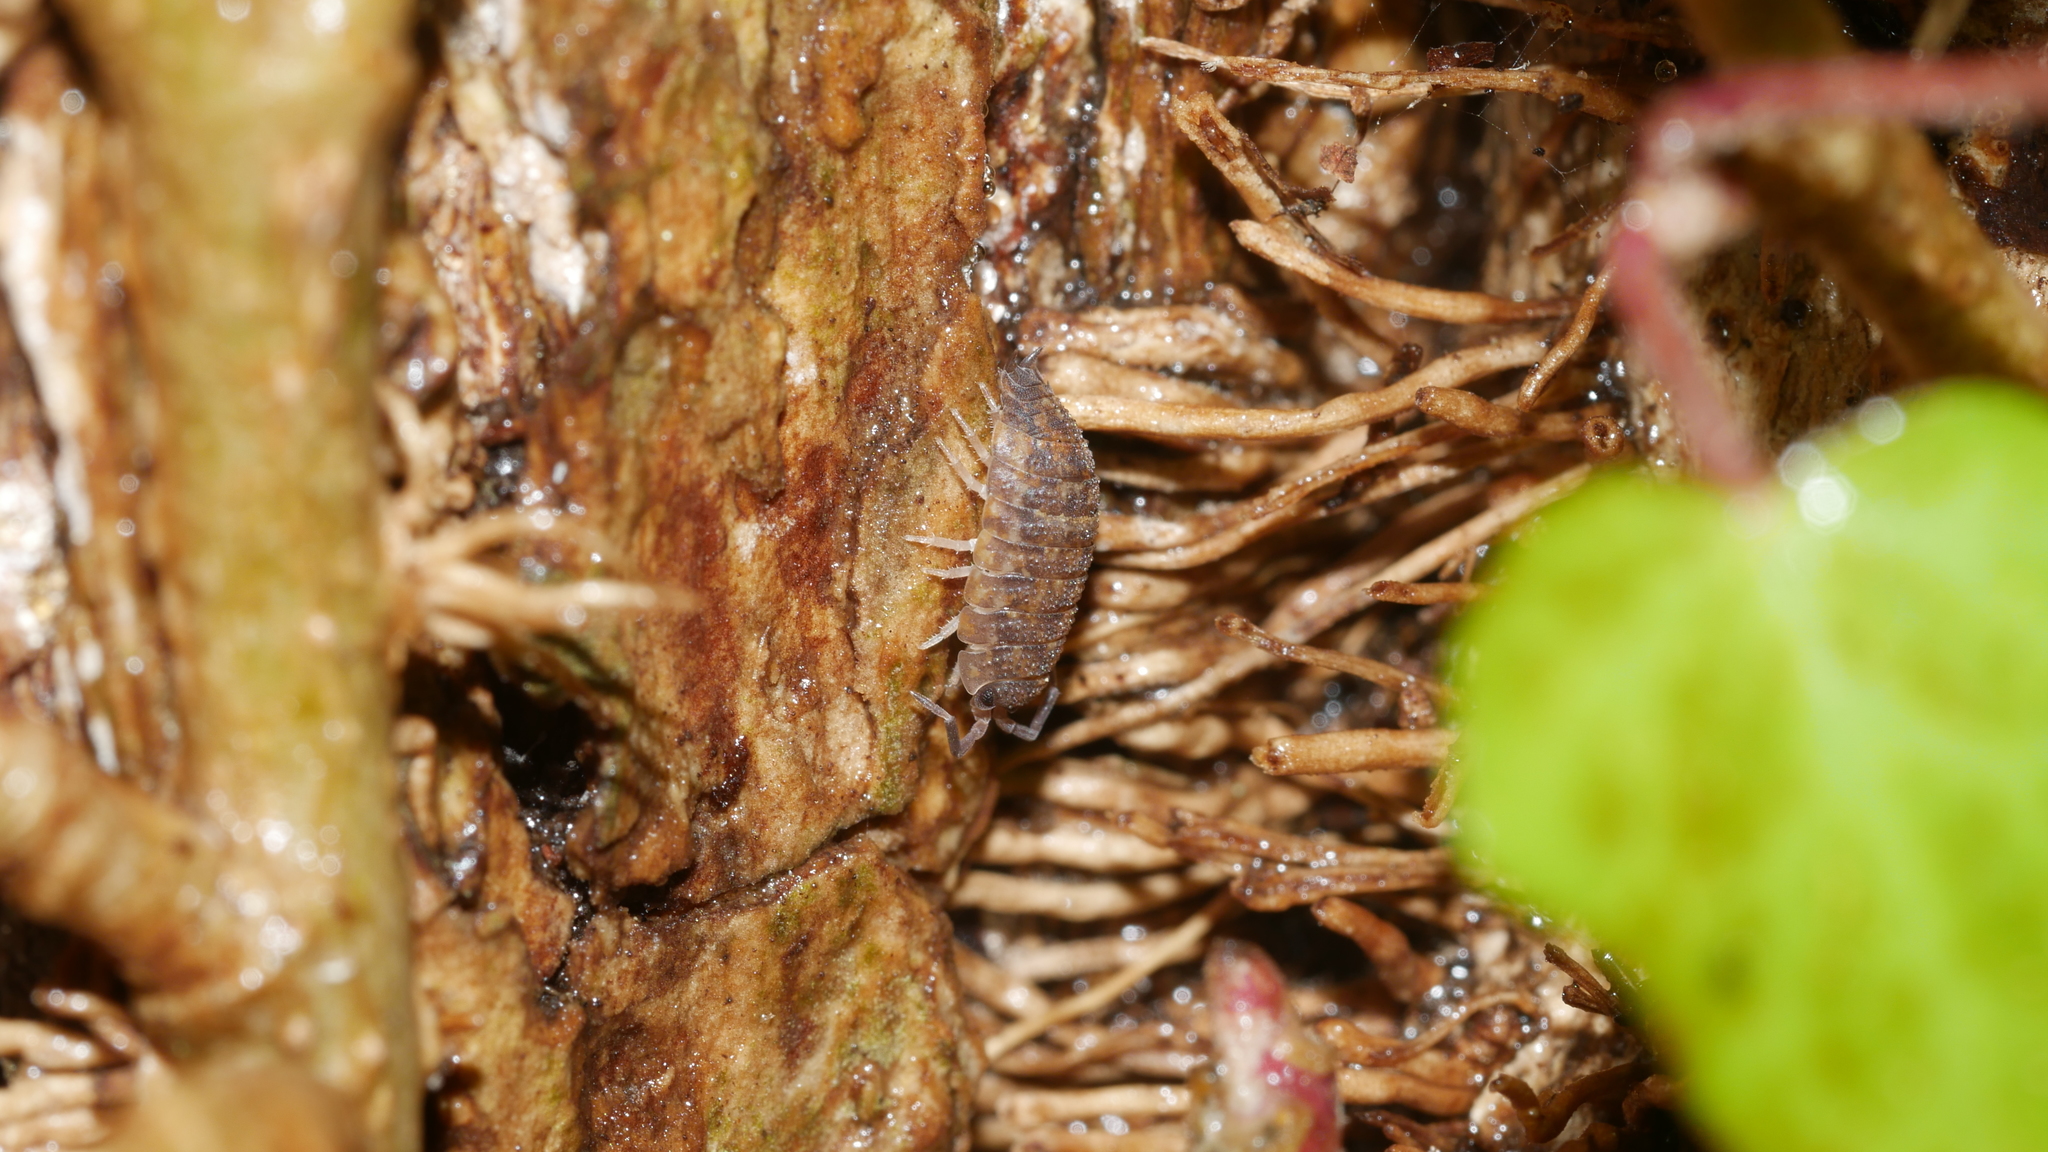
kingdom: Animalia
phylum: Arthropoda
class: Malacostraca
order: Isopoda
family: Porcellionidae
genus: Porcellio
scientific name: Porcellio scaber
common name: Common rough woodlouse
